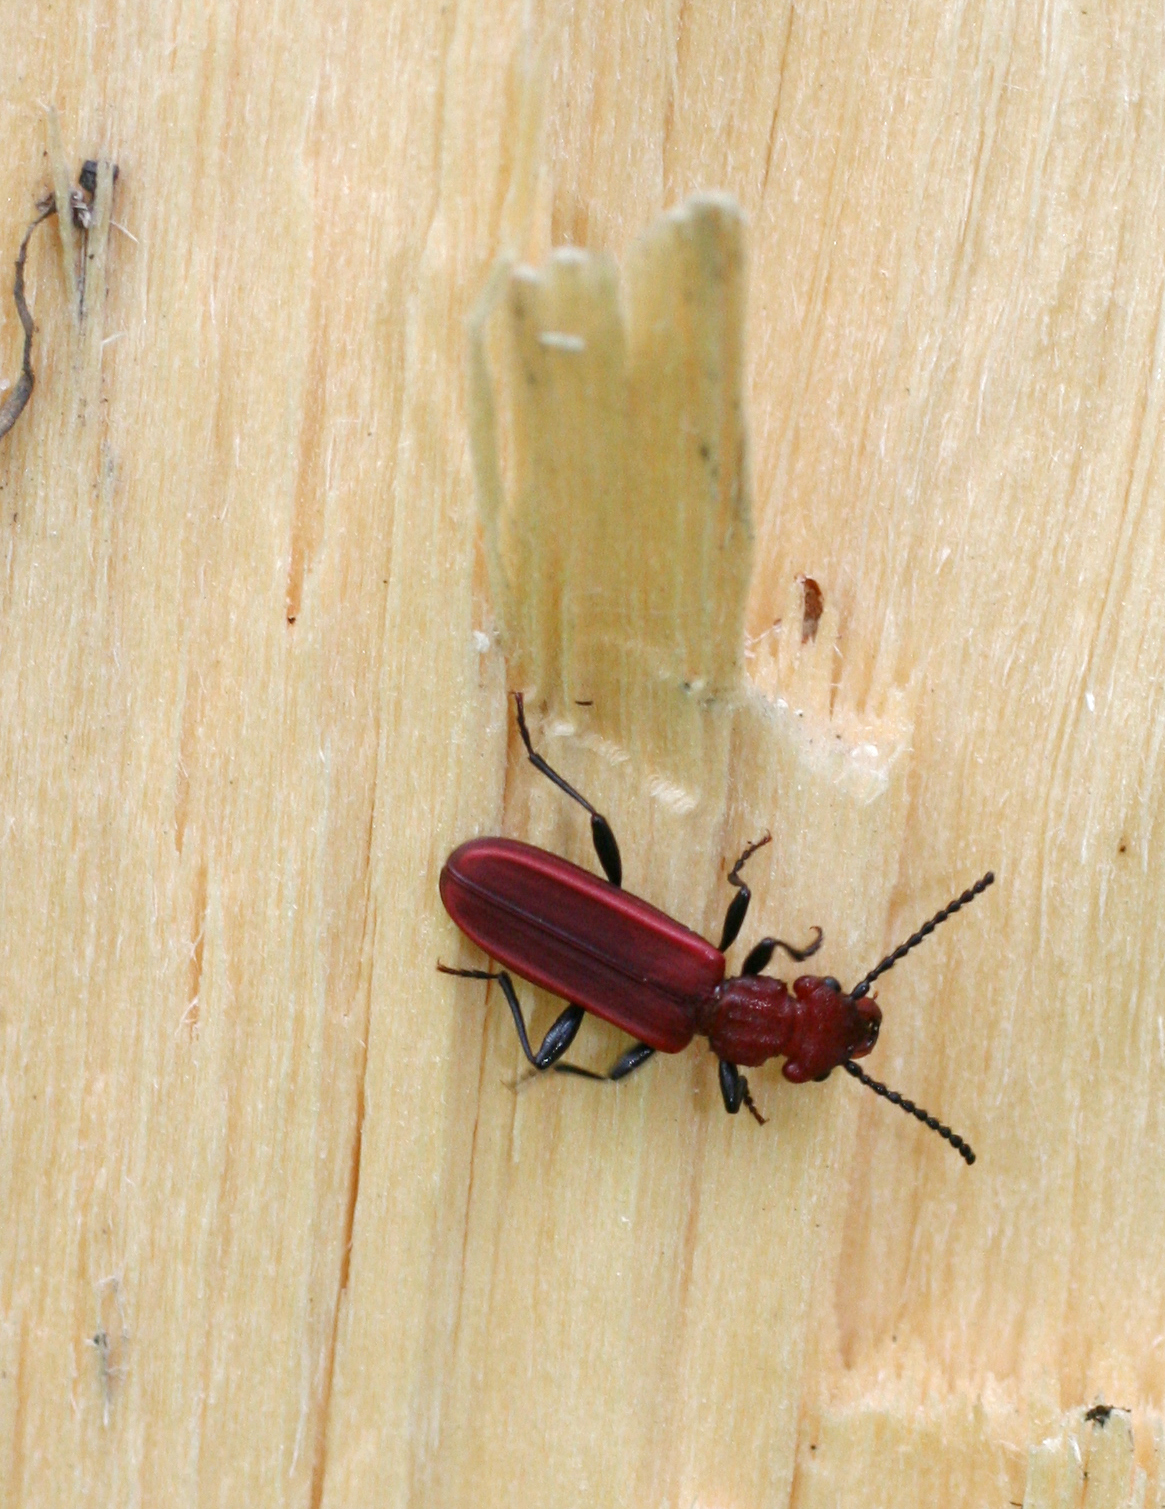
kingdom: Animalia
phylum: Arthropoda
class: Insecta
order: Coleoptera
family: Cucujidae
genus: Cucujus
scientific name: Cucujus haematodes
